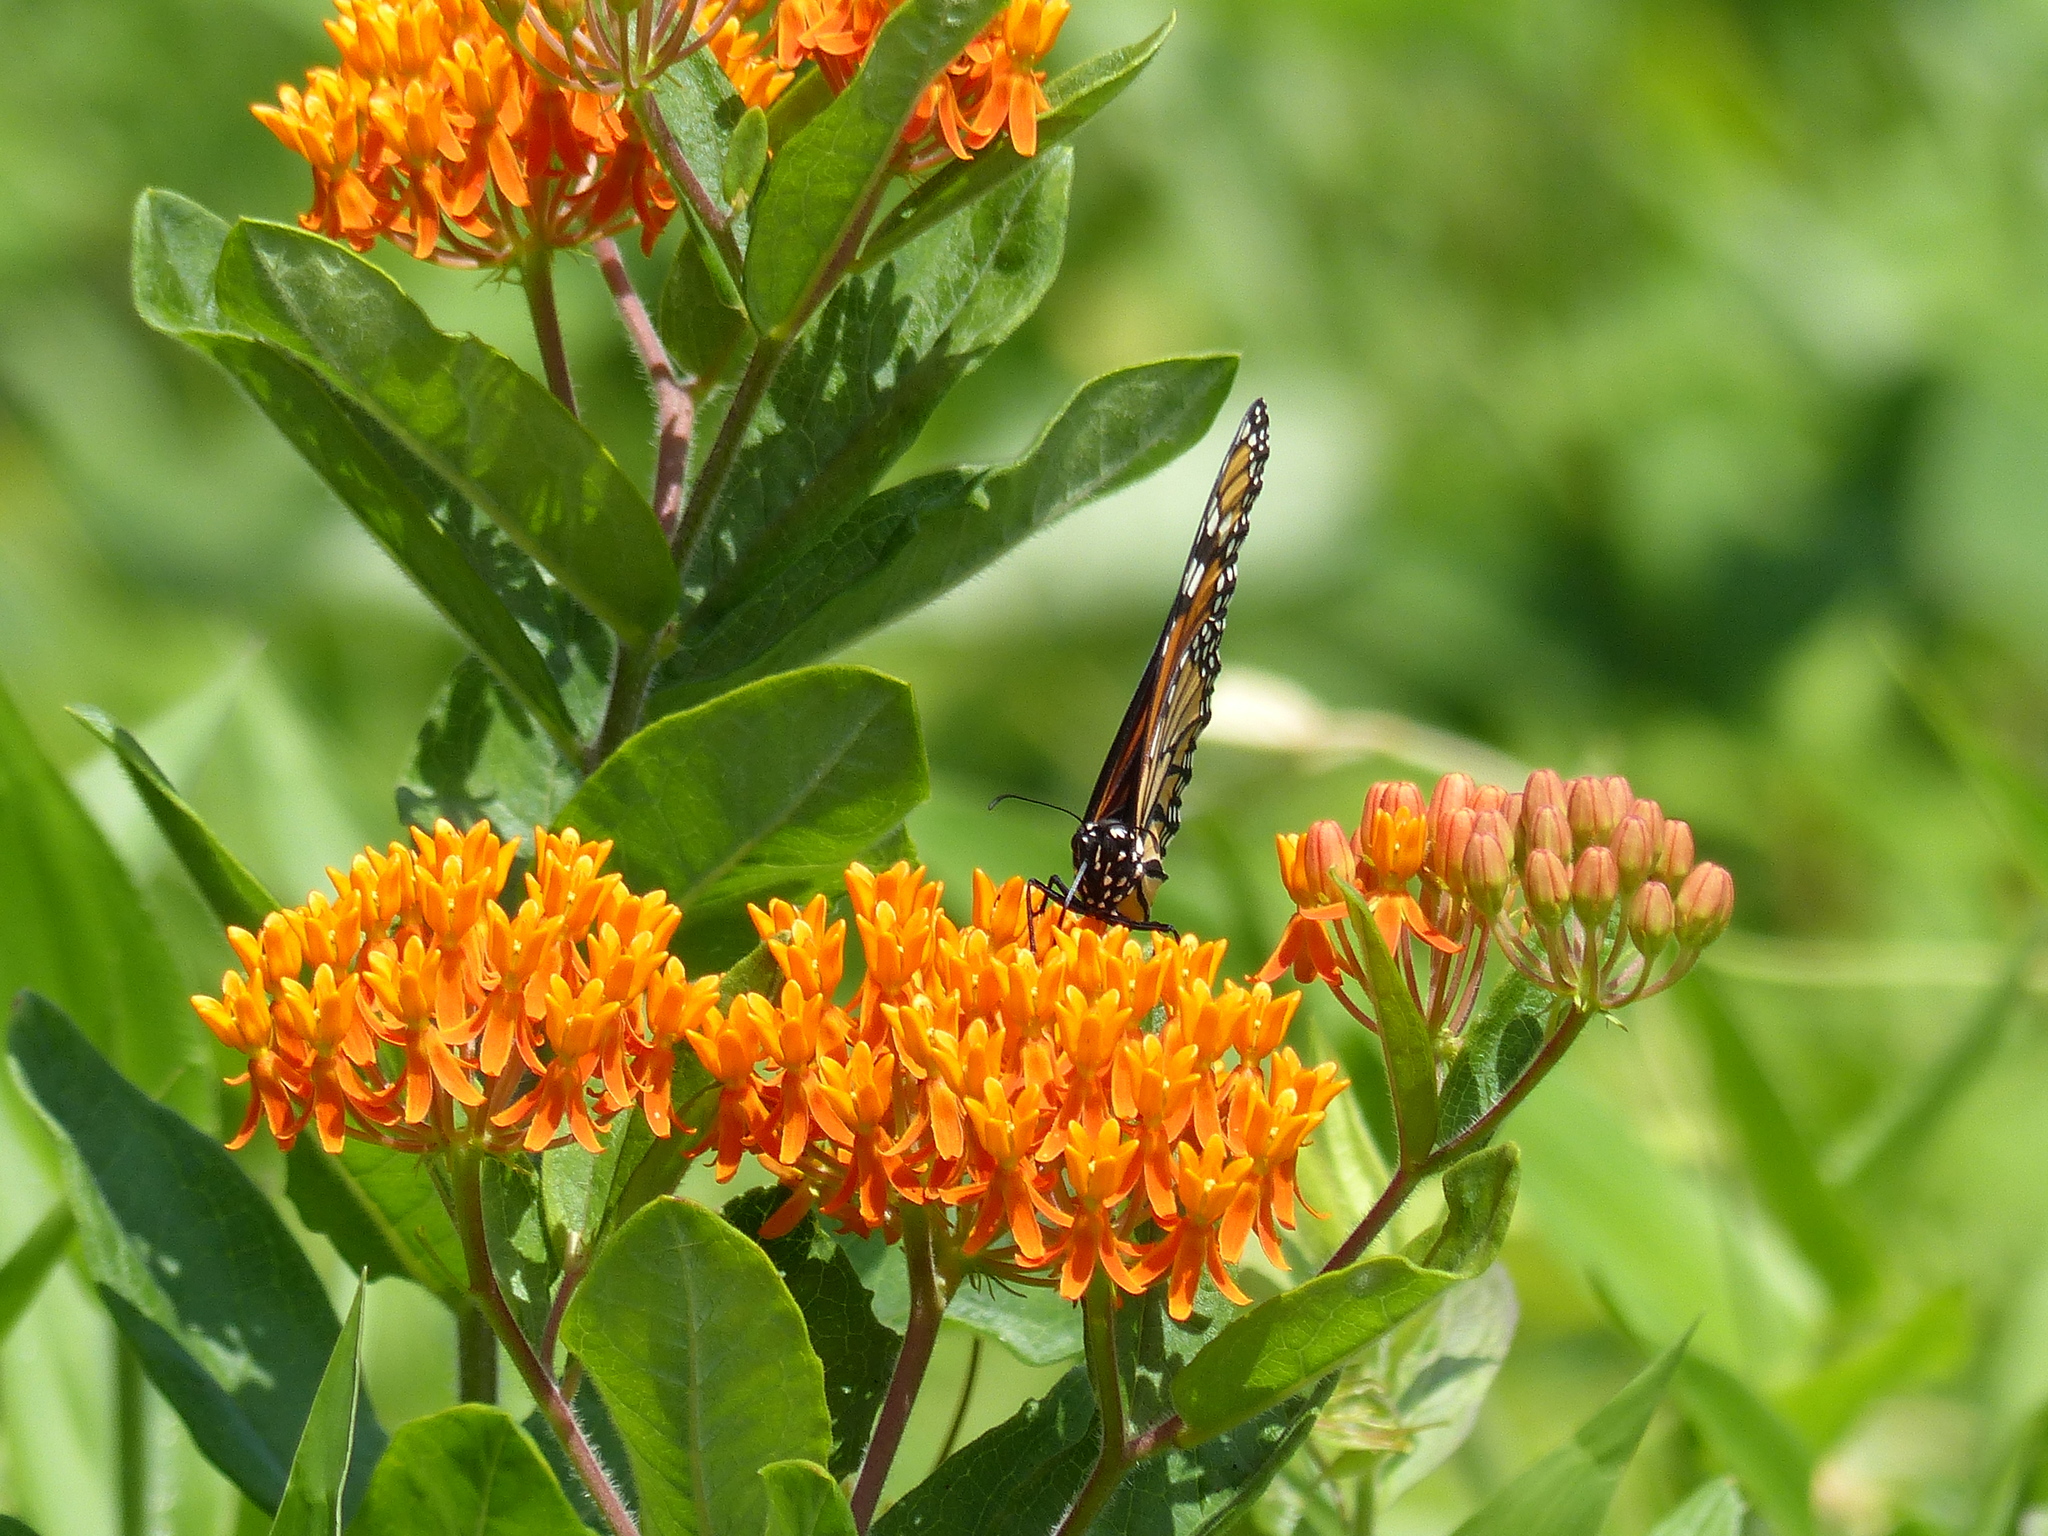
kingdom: Plantae
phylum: Tracheophyta
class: Magnoliopsida
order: Gentianales
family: Apocynaceae
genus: Asclepias
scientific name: Asclepias tuberosa
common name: Butterfly milkweed
